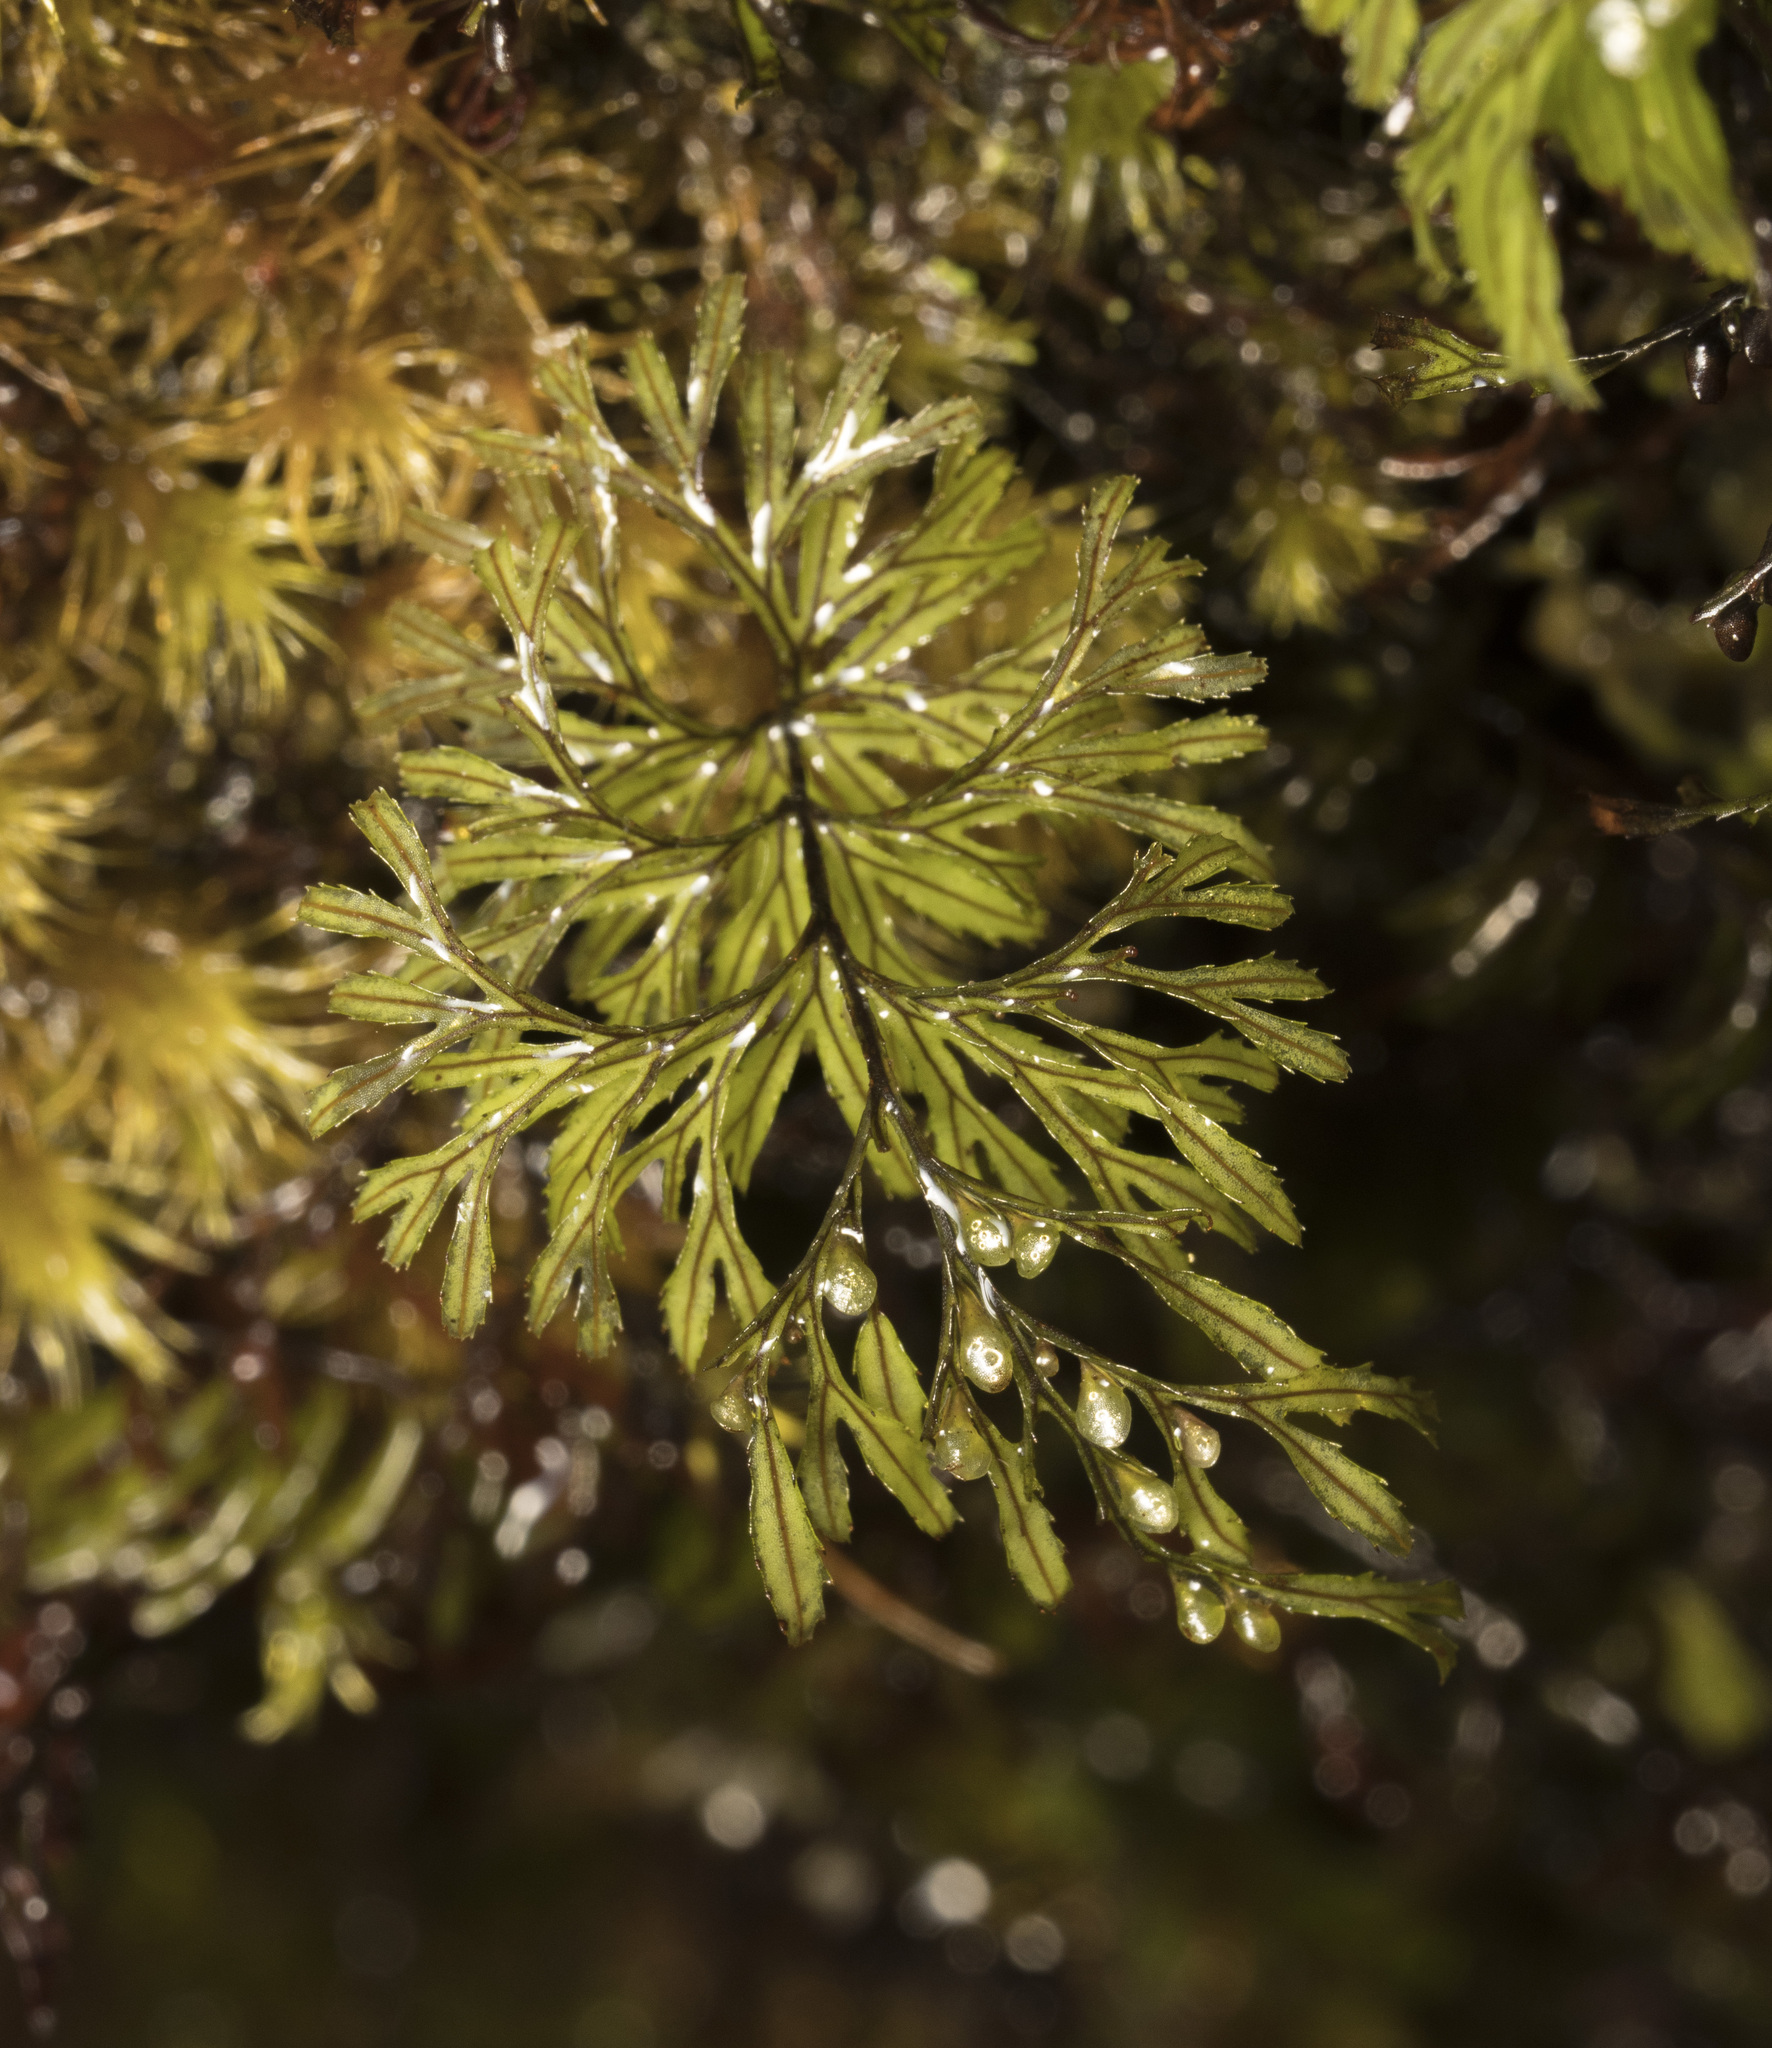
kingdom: Plantae
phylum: Tracheophyta
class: Polypodiopsida
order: Hymenophyllales
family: Hymenophyllaceae
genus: Hymenophyllum
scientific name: Hymenophyllum secundum
